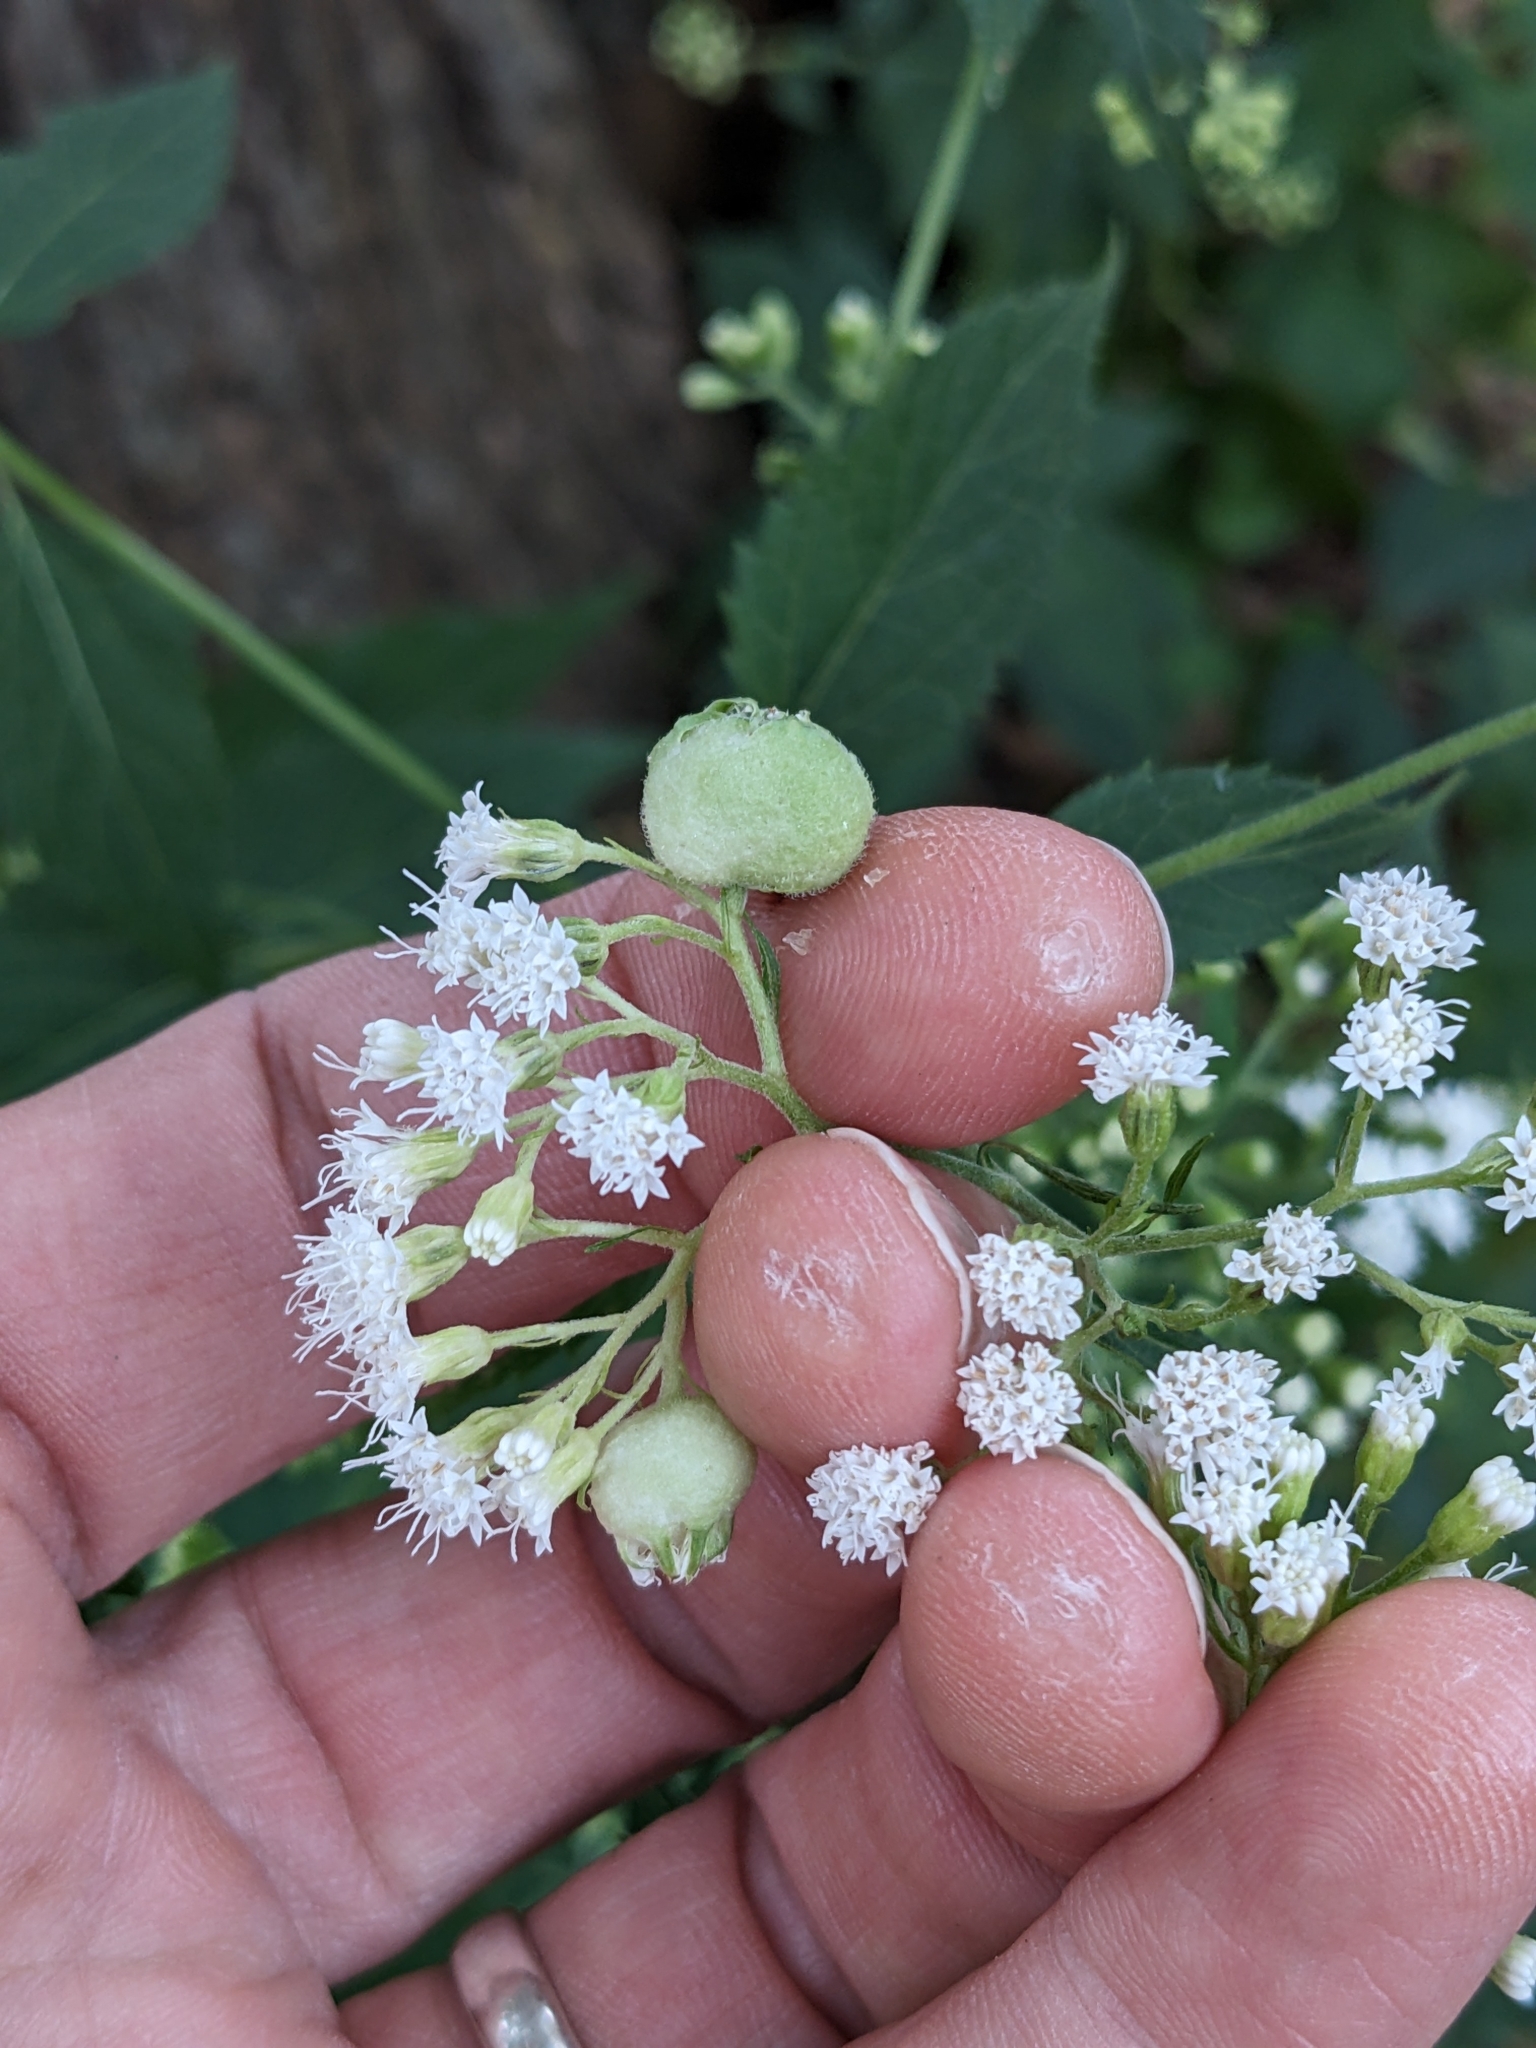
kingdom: Animalia
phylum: Arthropoda
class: Insecta
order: Diptera
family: Cecidomyiidae
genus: Schizomyia
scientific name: Schizomyia eupatoriflorae
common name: Boneset flower gall midge
